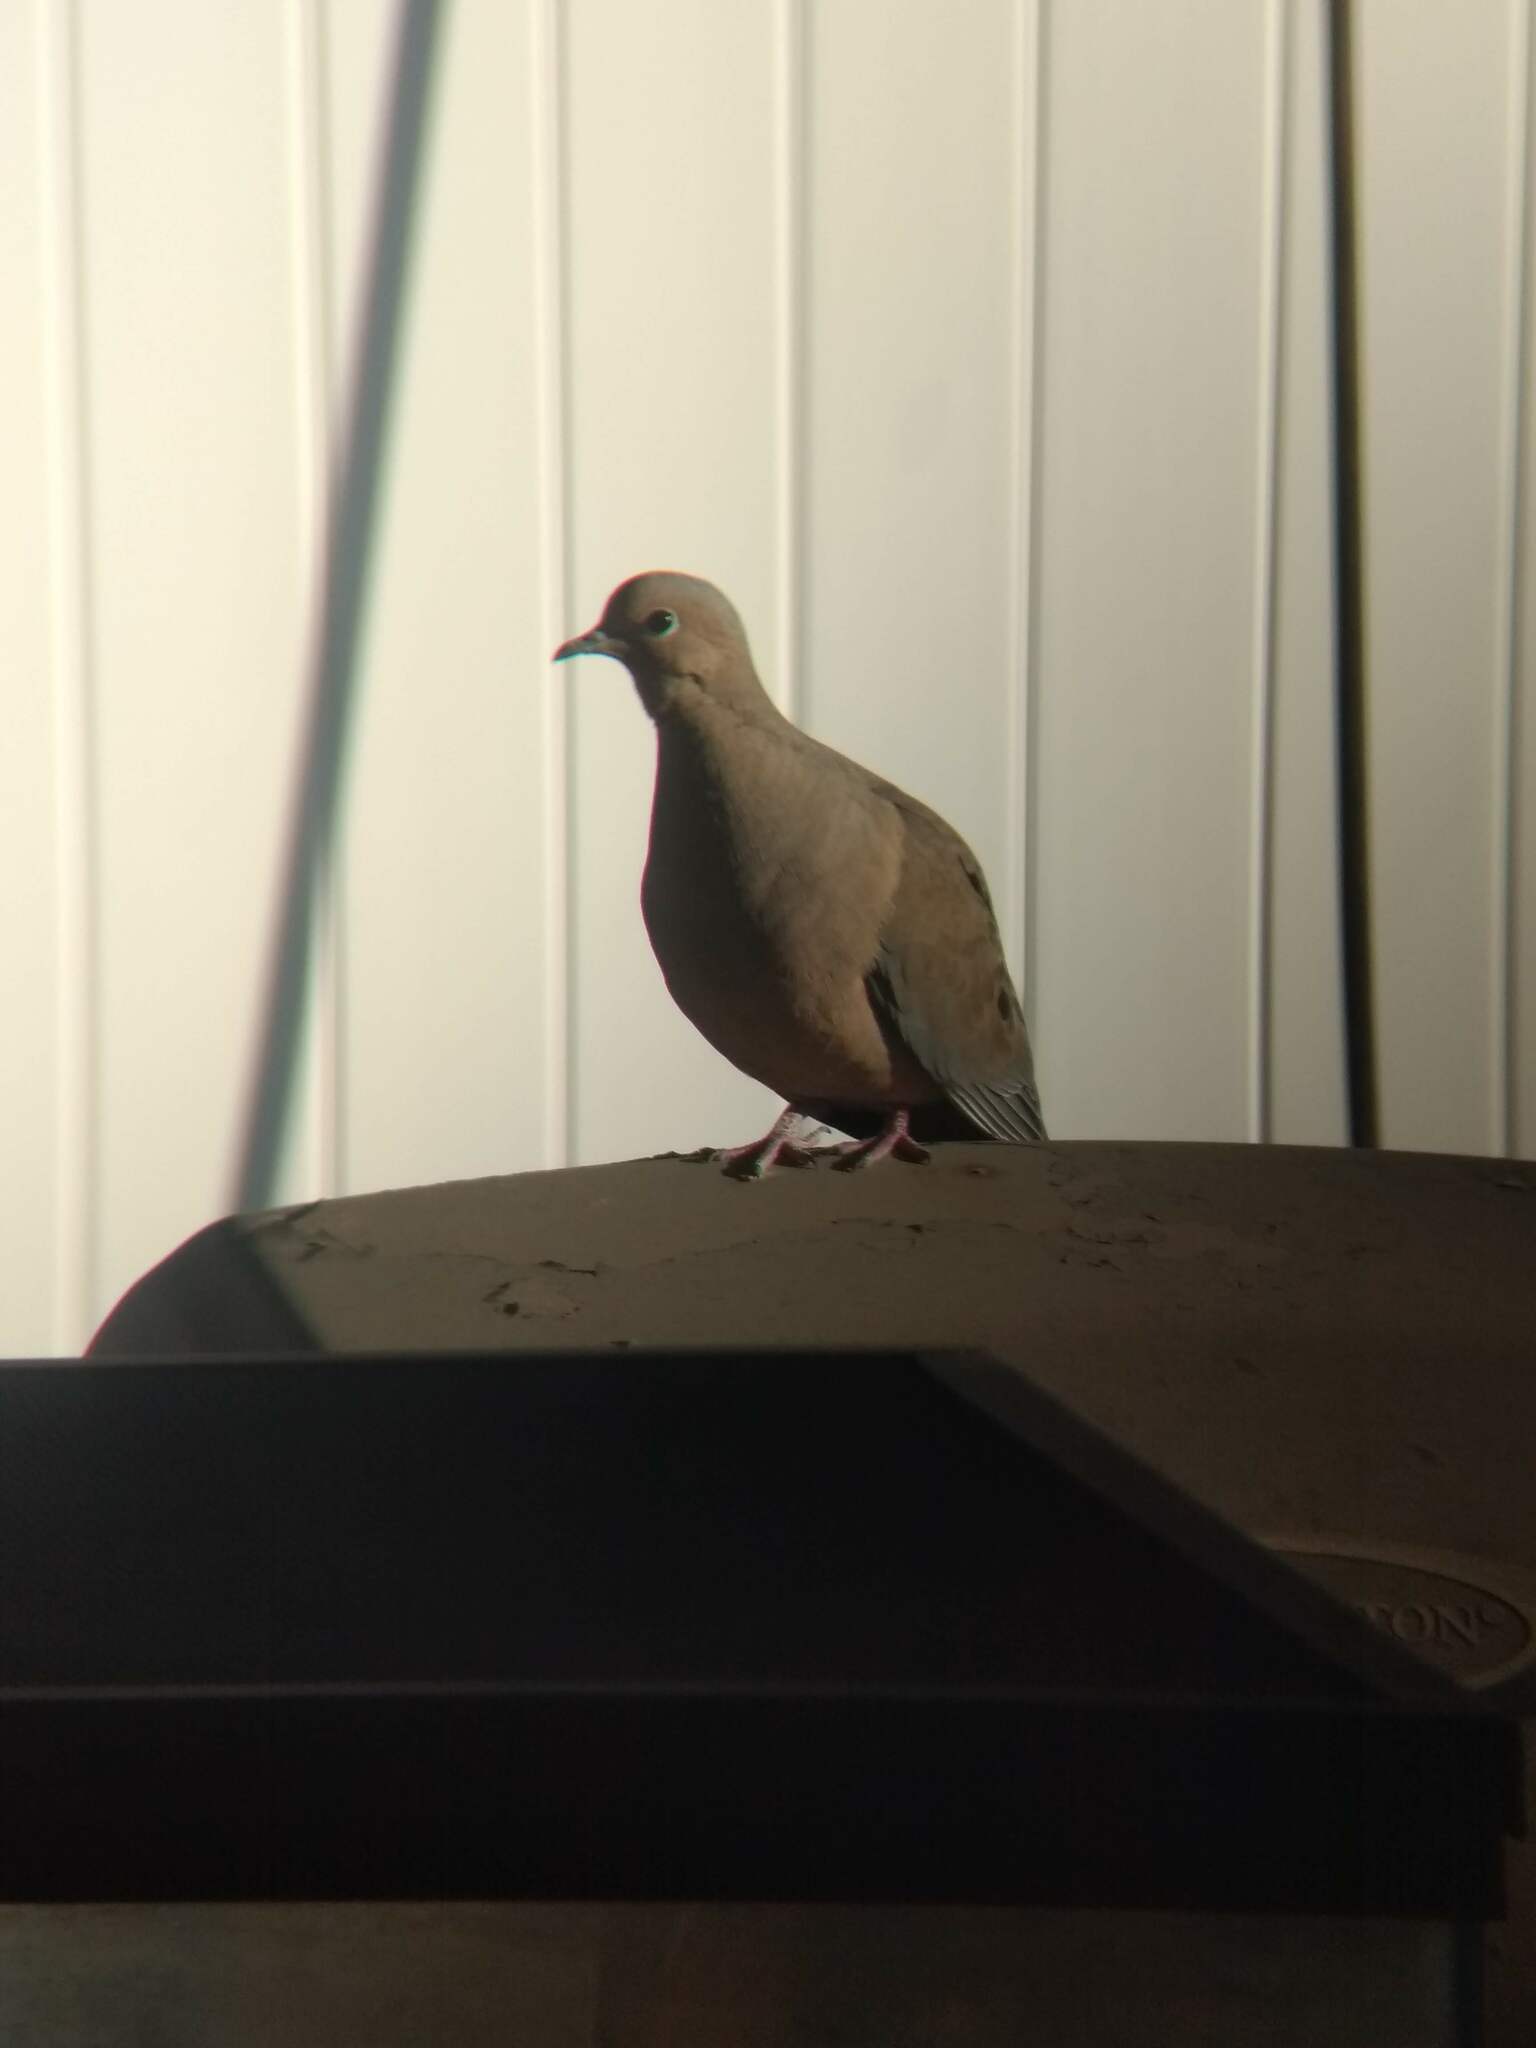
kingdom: Animalia
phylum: Chordata
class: Aves
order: Columbiformes
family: Columbidae
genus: Zenaida
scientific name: Zenaida macroura
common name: Mourning dove
